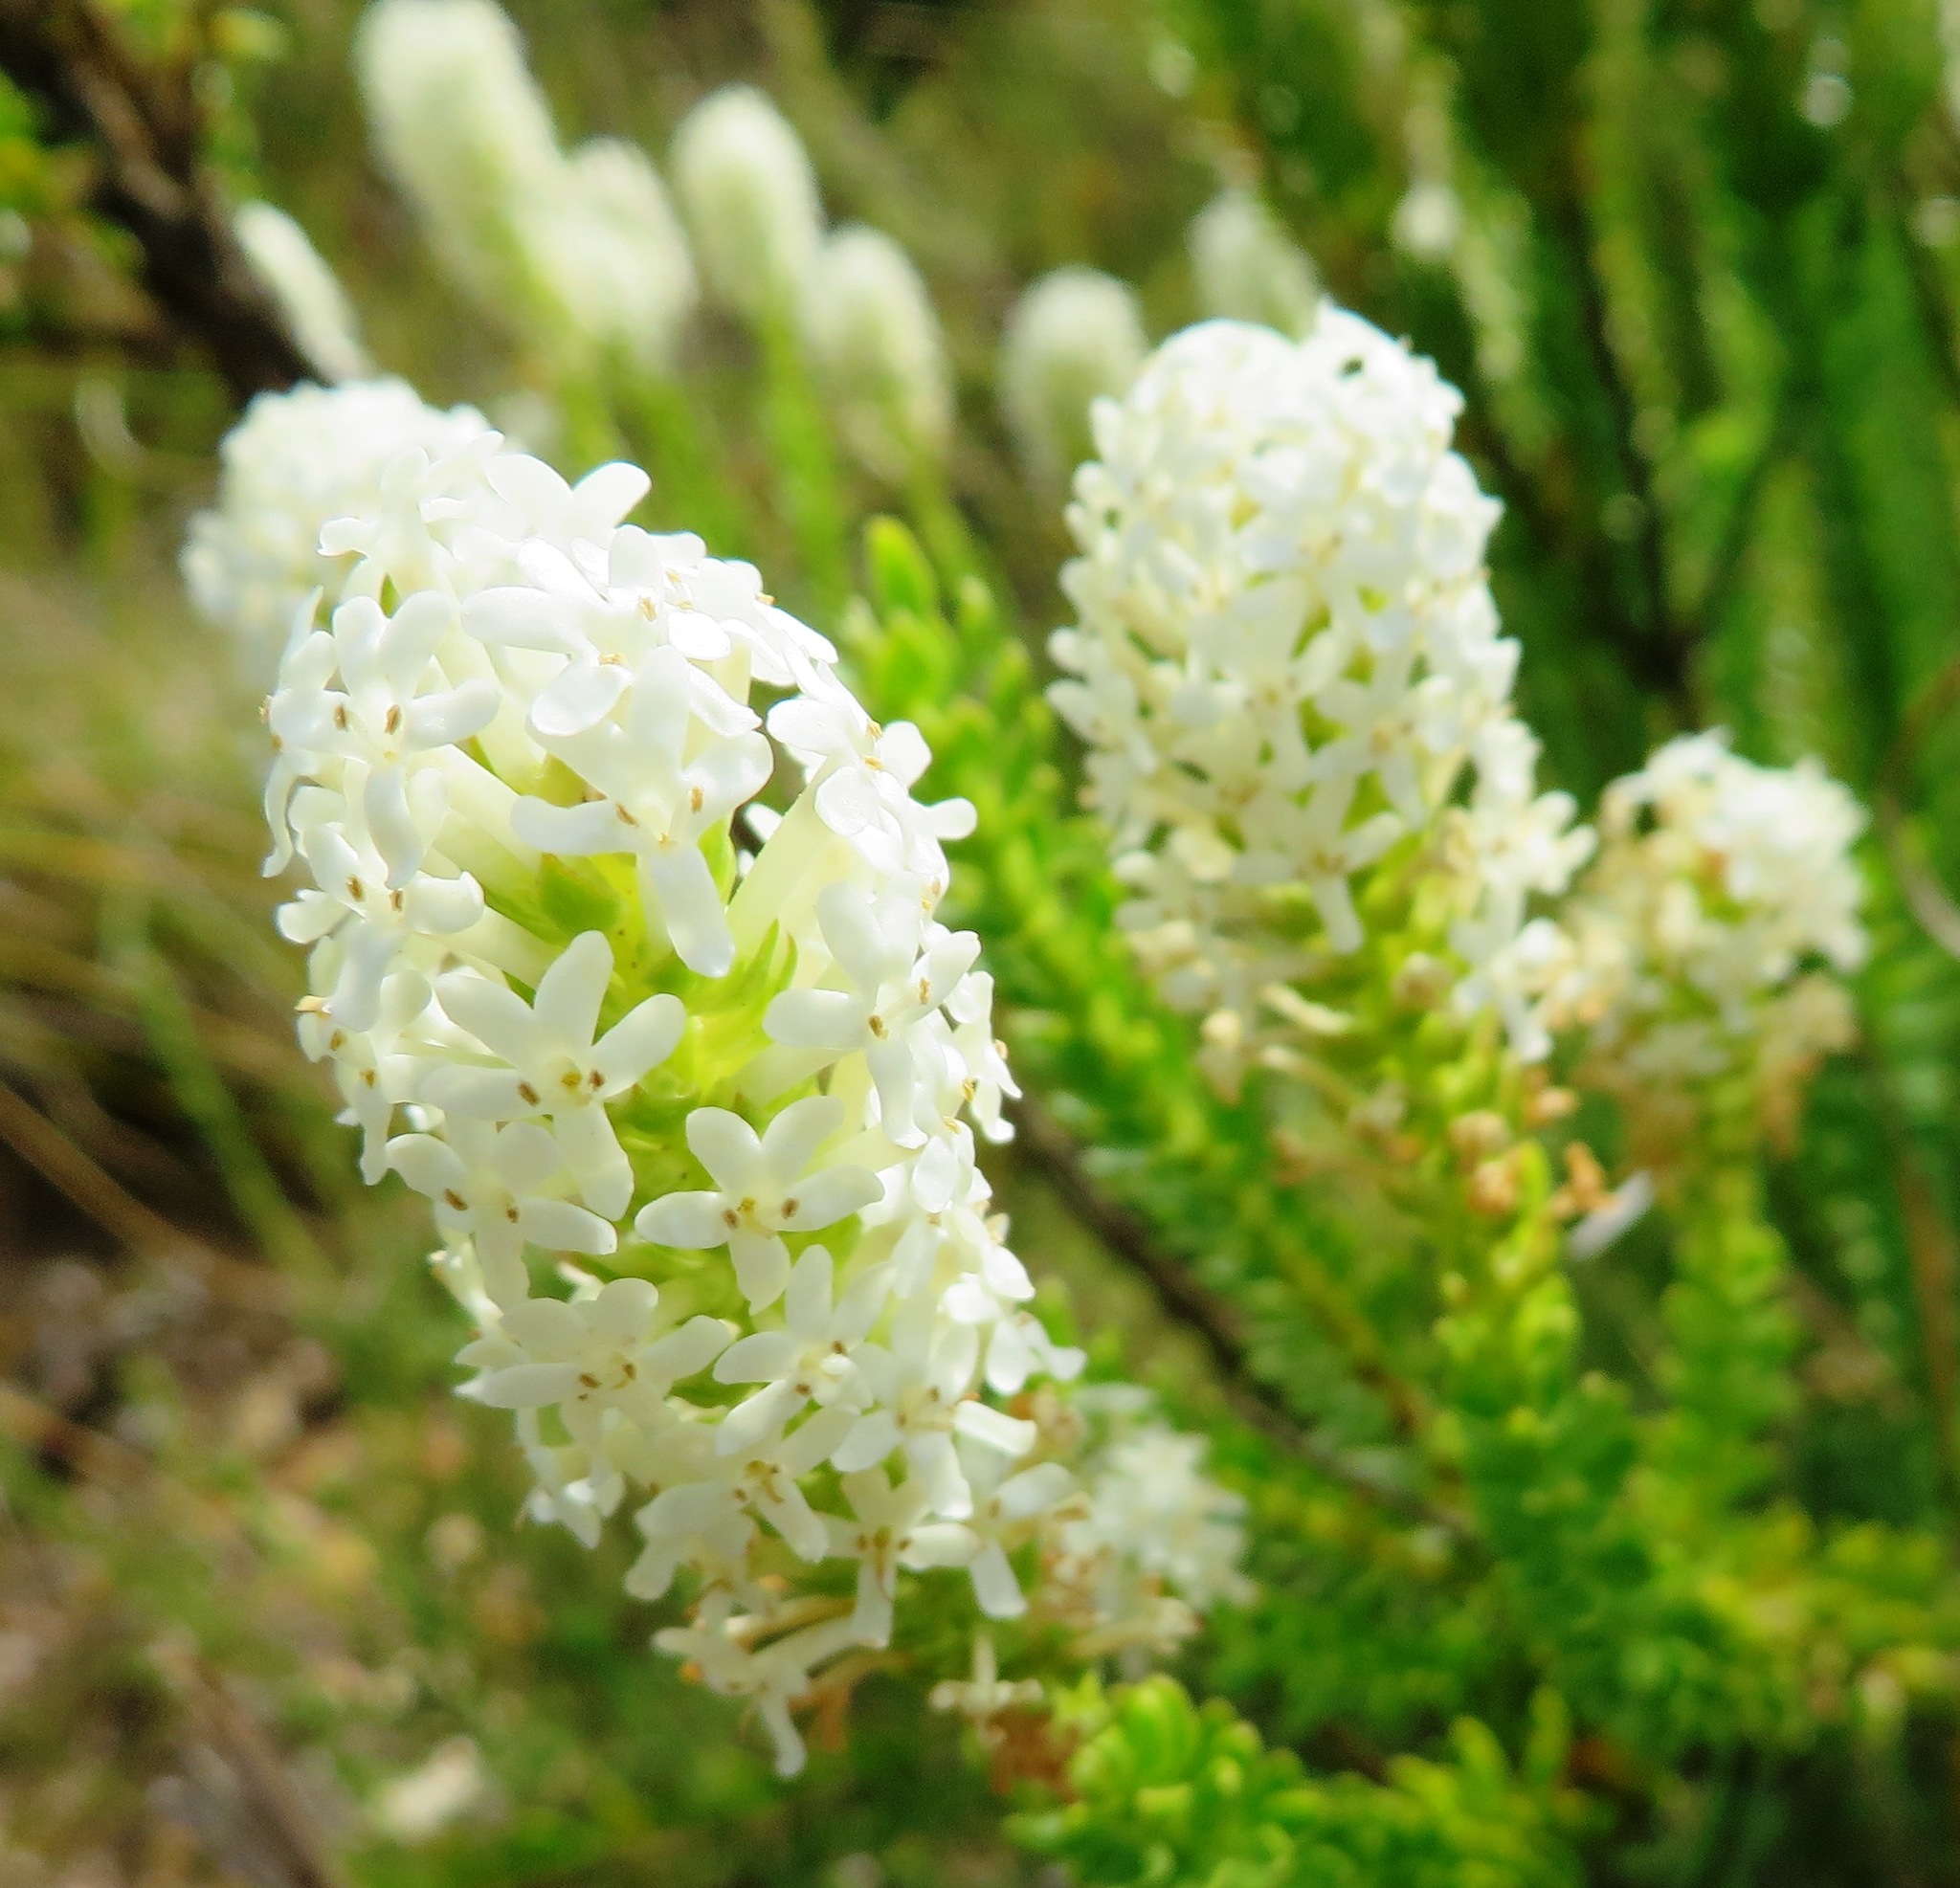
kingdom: Plantae
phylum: Tracheophyta
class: Magnoliopsida
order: Lamiales
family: Scrophulariaceae
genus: Microdon
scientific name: Microdon parviflorus
